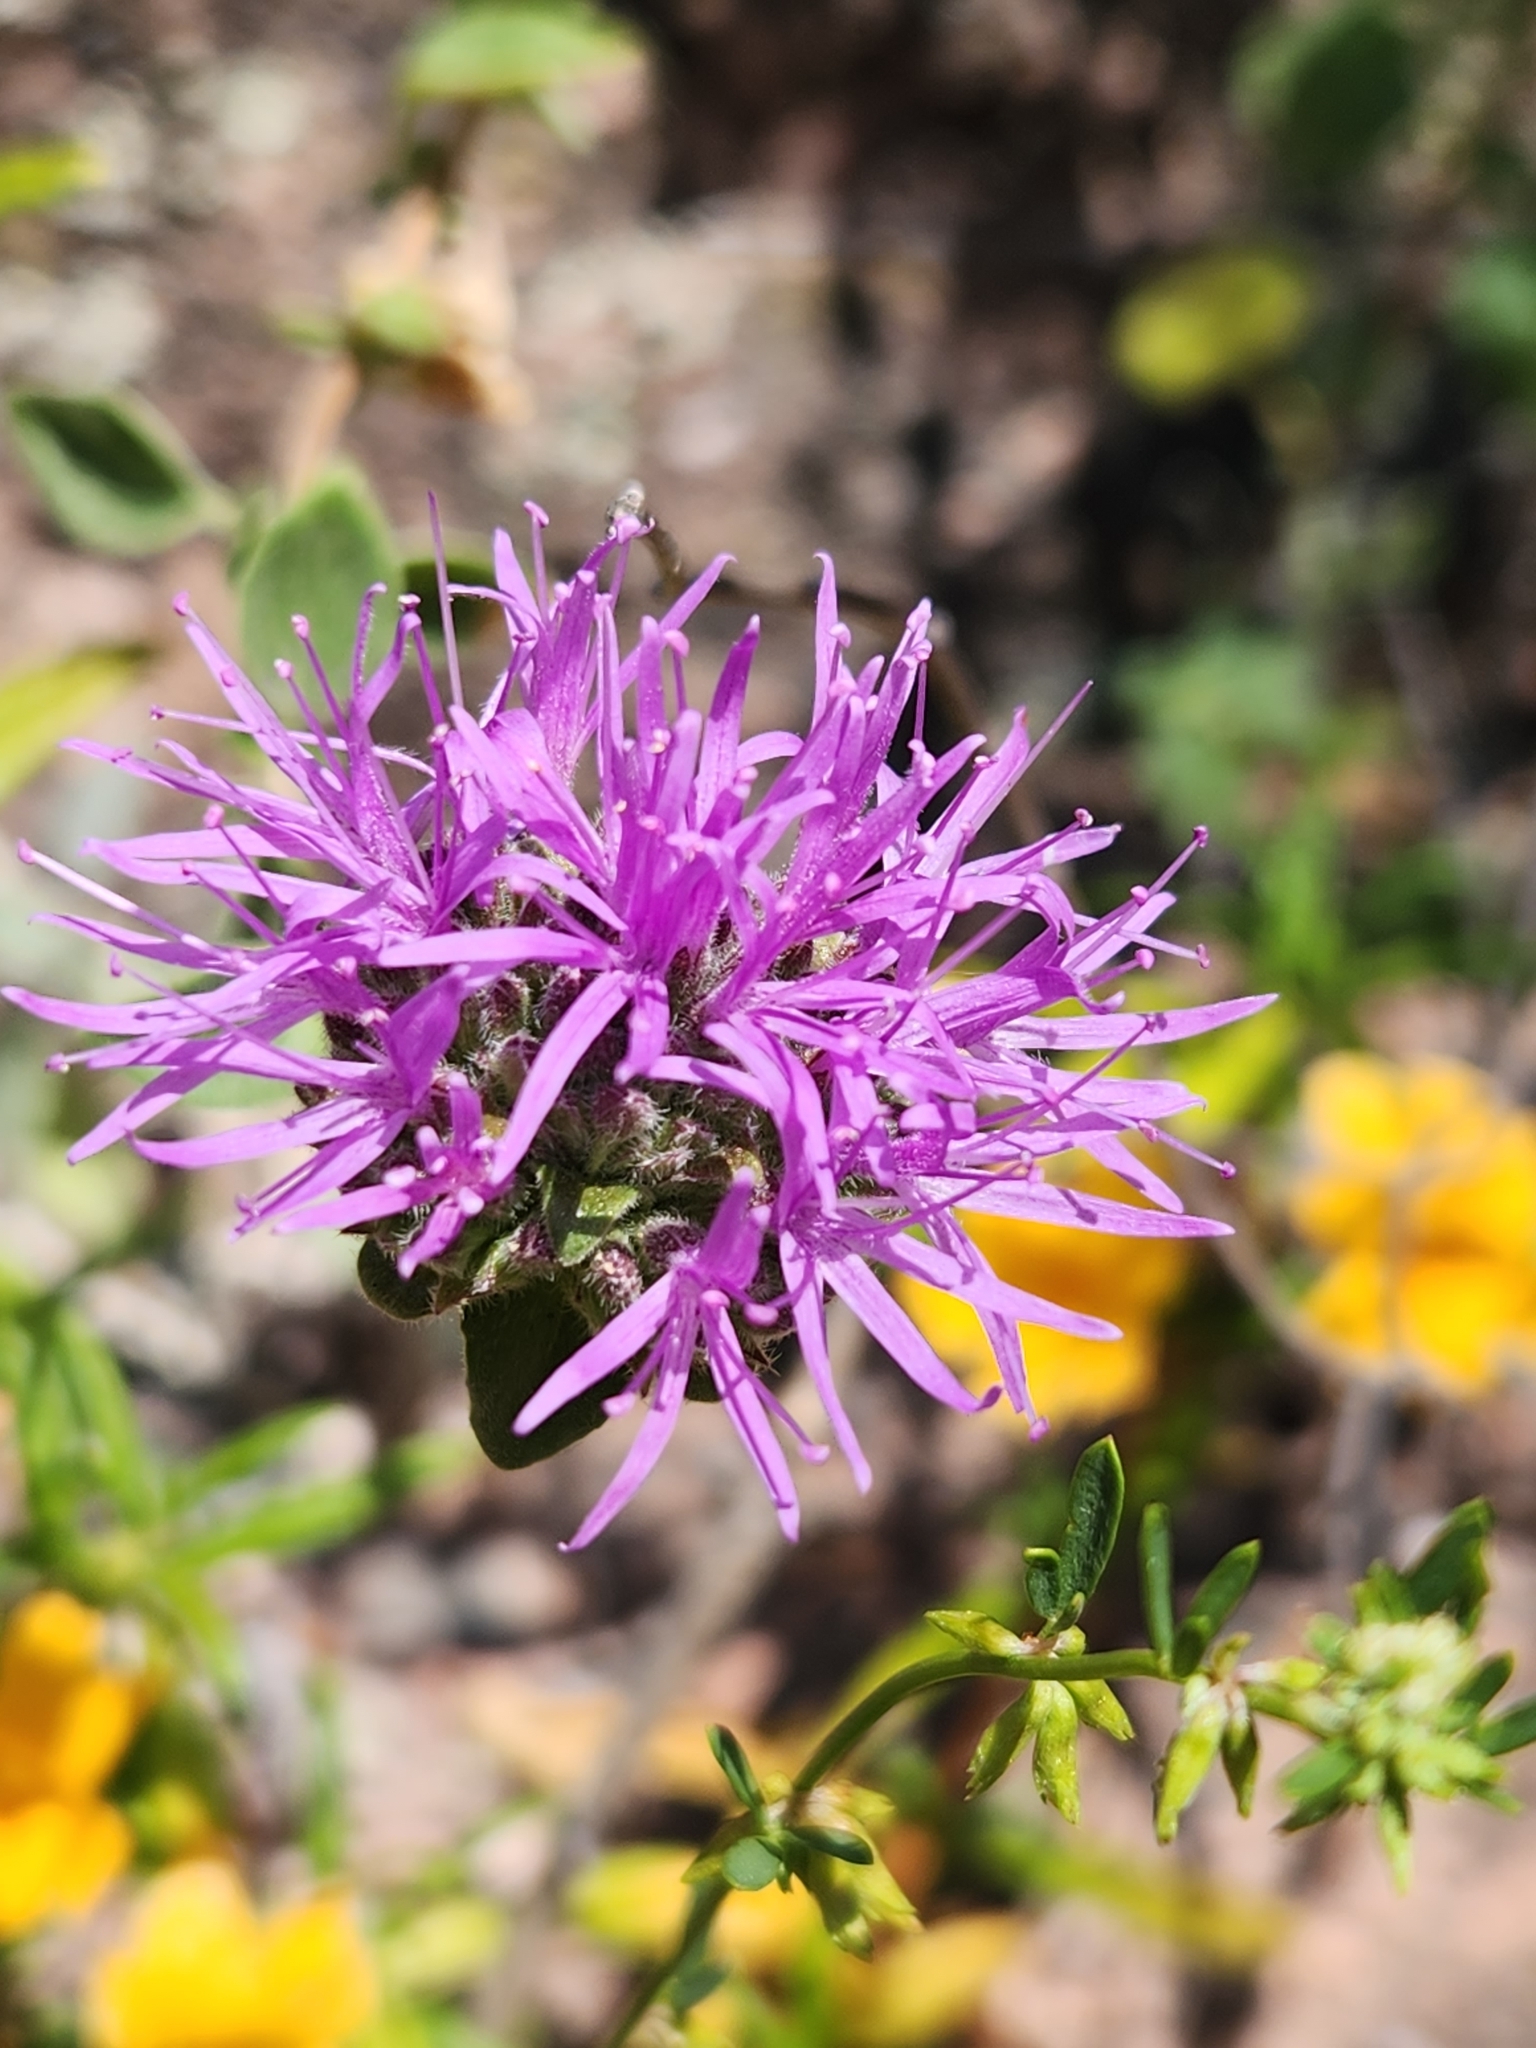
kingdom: Plantae
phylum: Tracheophyta
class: Magnoliopsida
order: Lamiales
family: Lamiaceae
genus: Monardella
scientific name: Monardella odoratissima
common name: Pacific monardella
